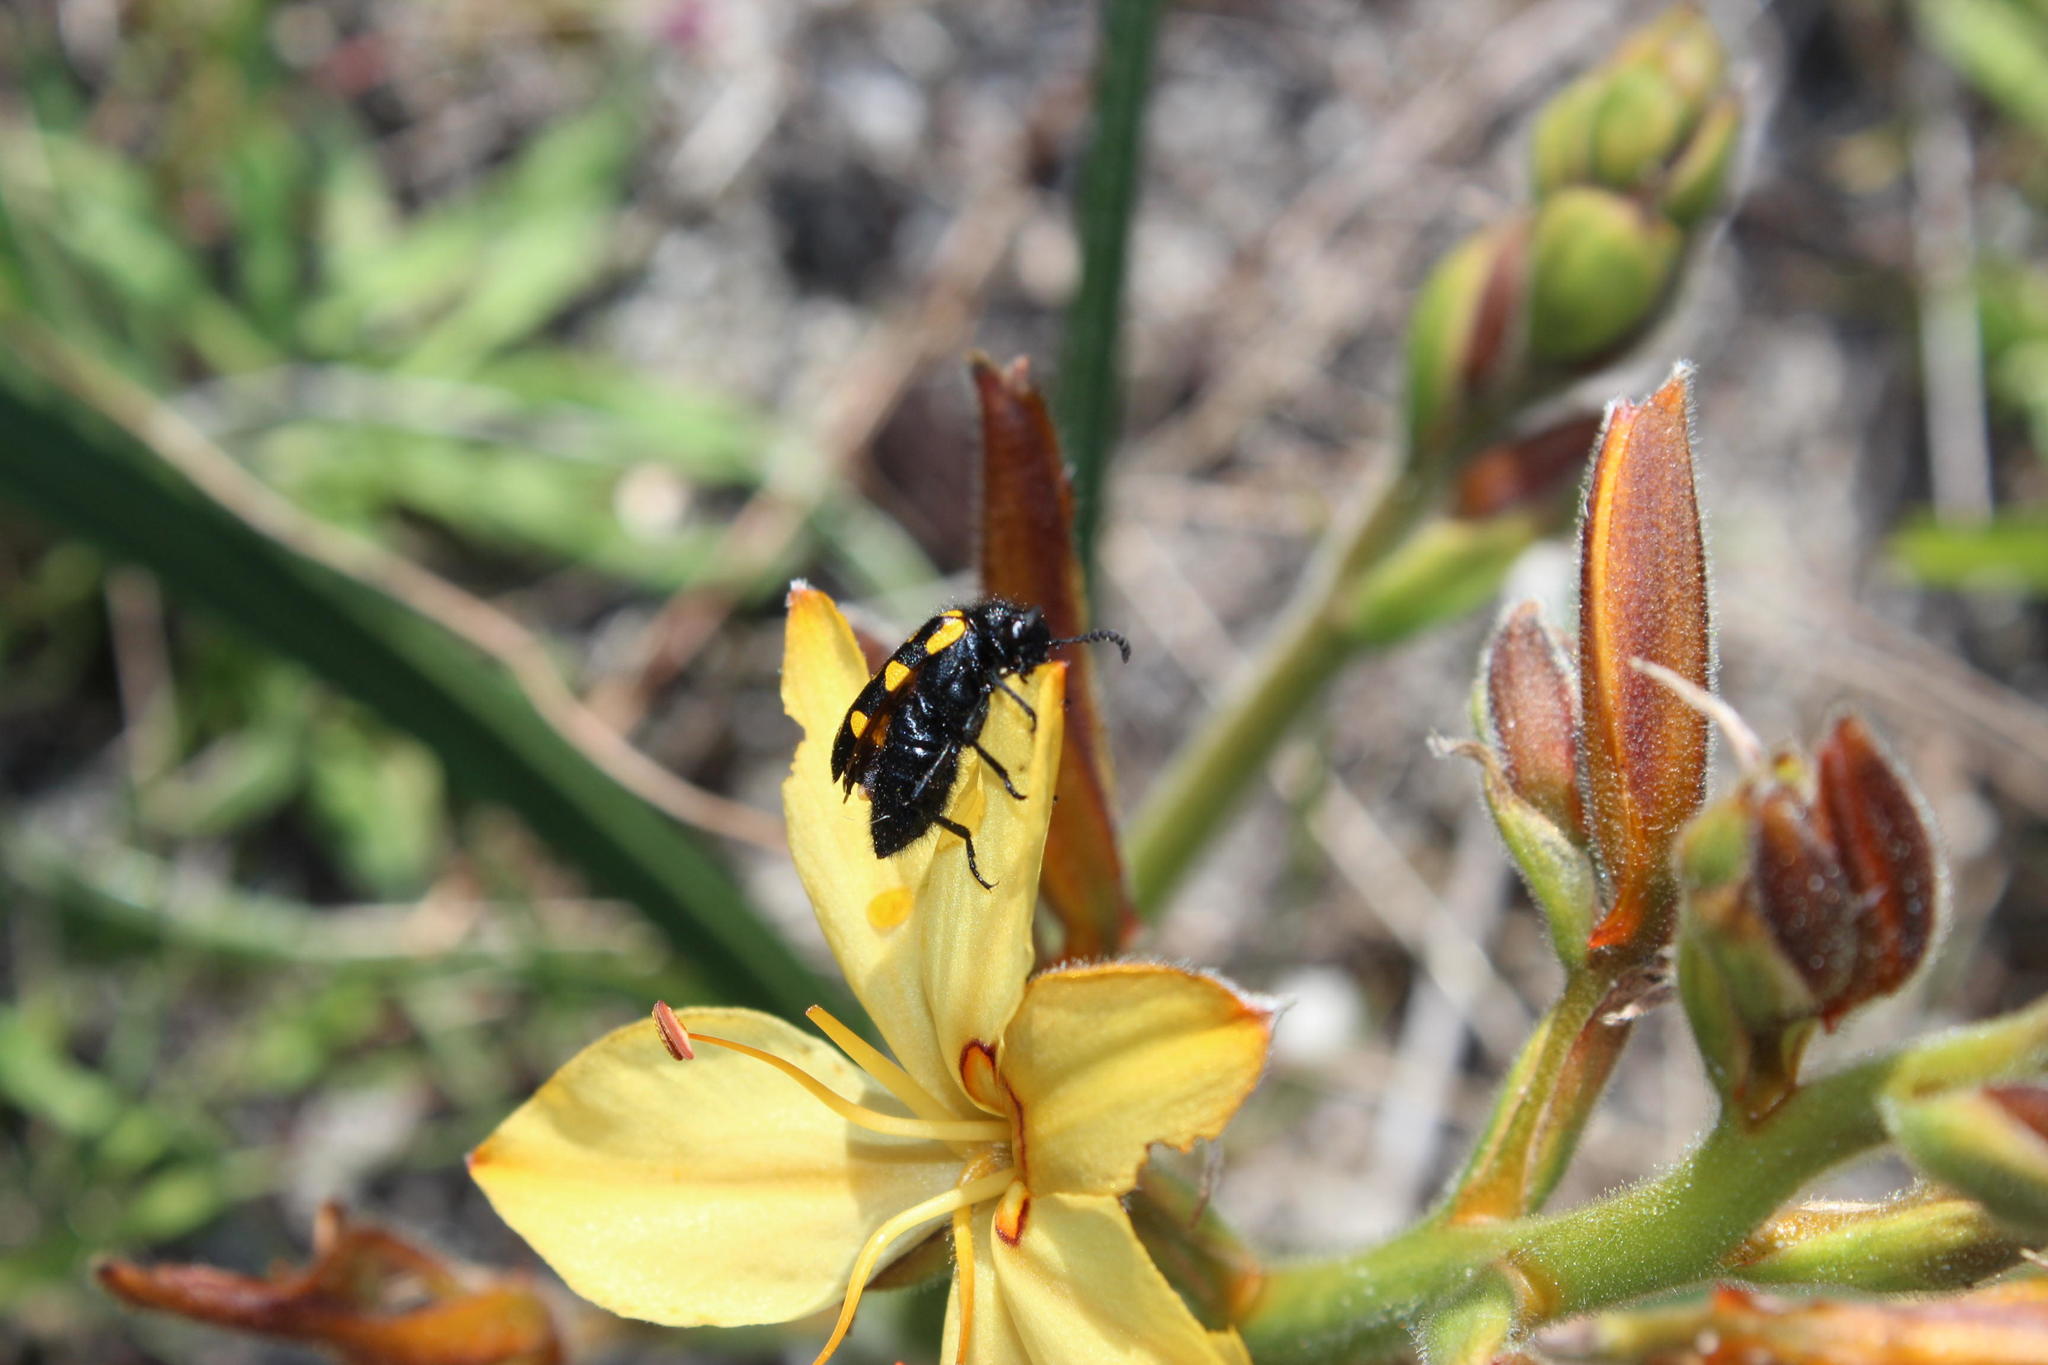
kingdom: Plantae
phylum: Tracheophyta
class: Liliopsida
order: Commelinales
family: Haemodoraceae
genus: Wachendorfia
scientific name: Wachendorfia paniculata
